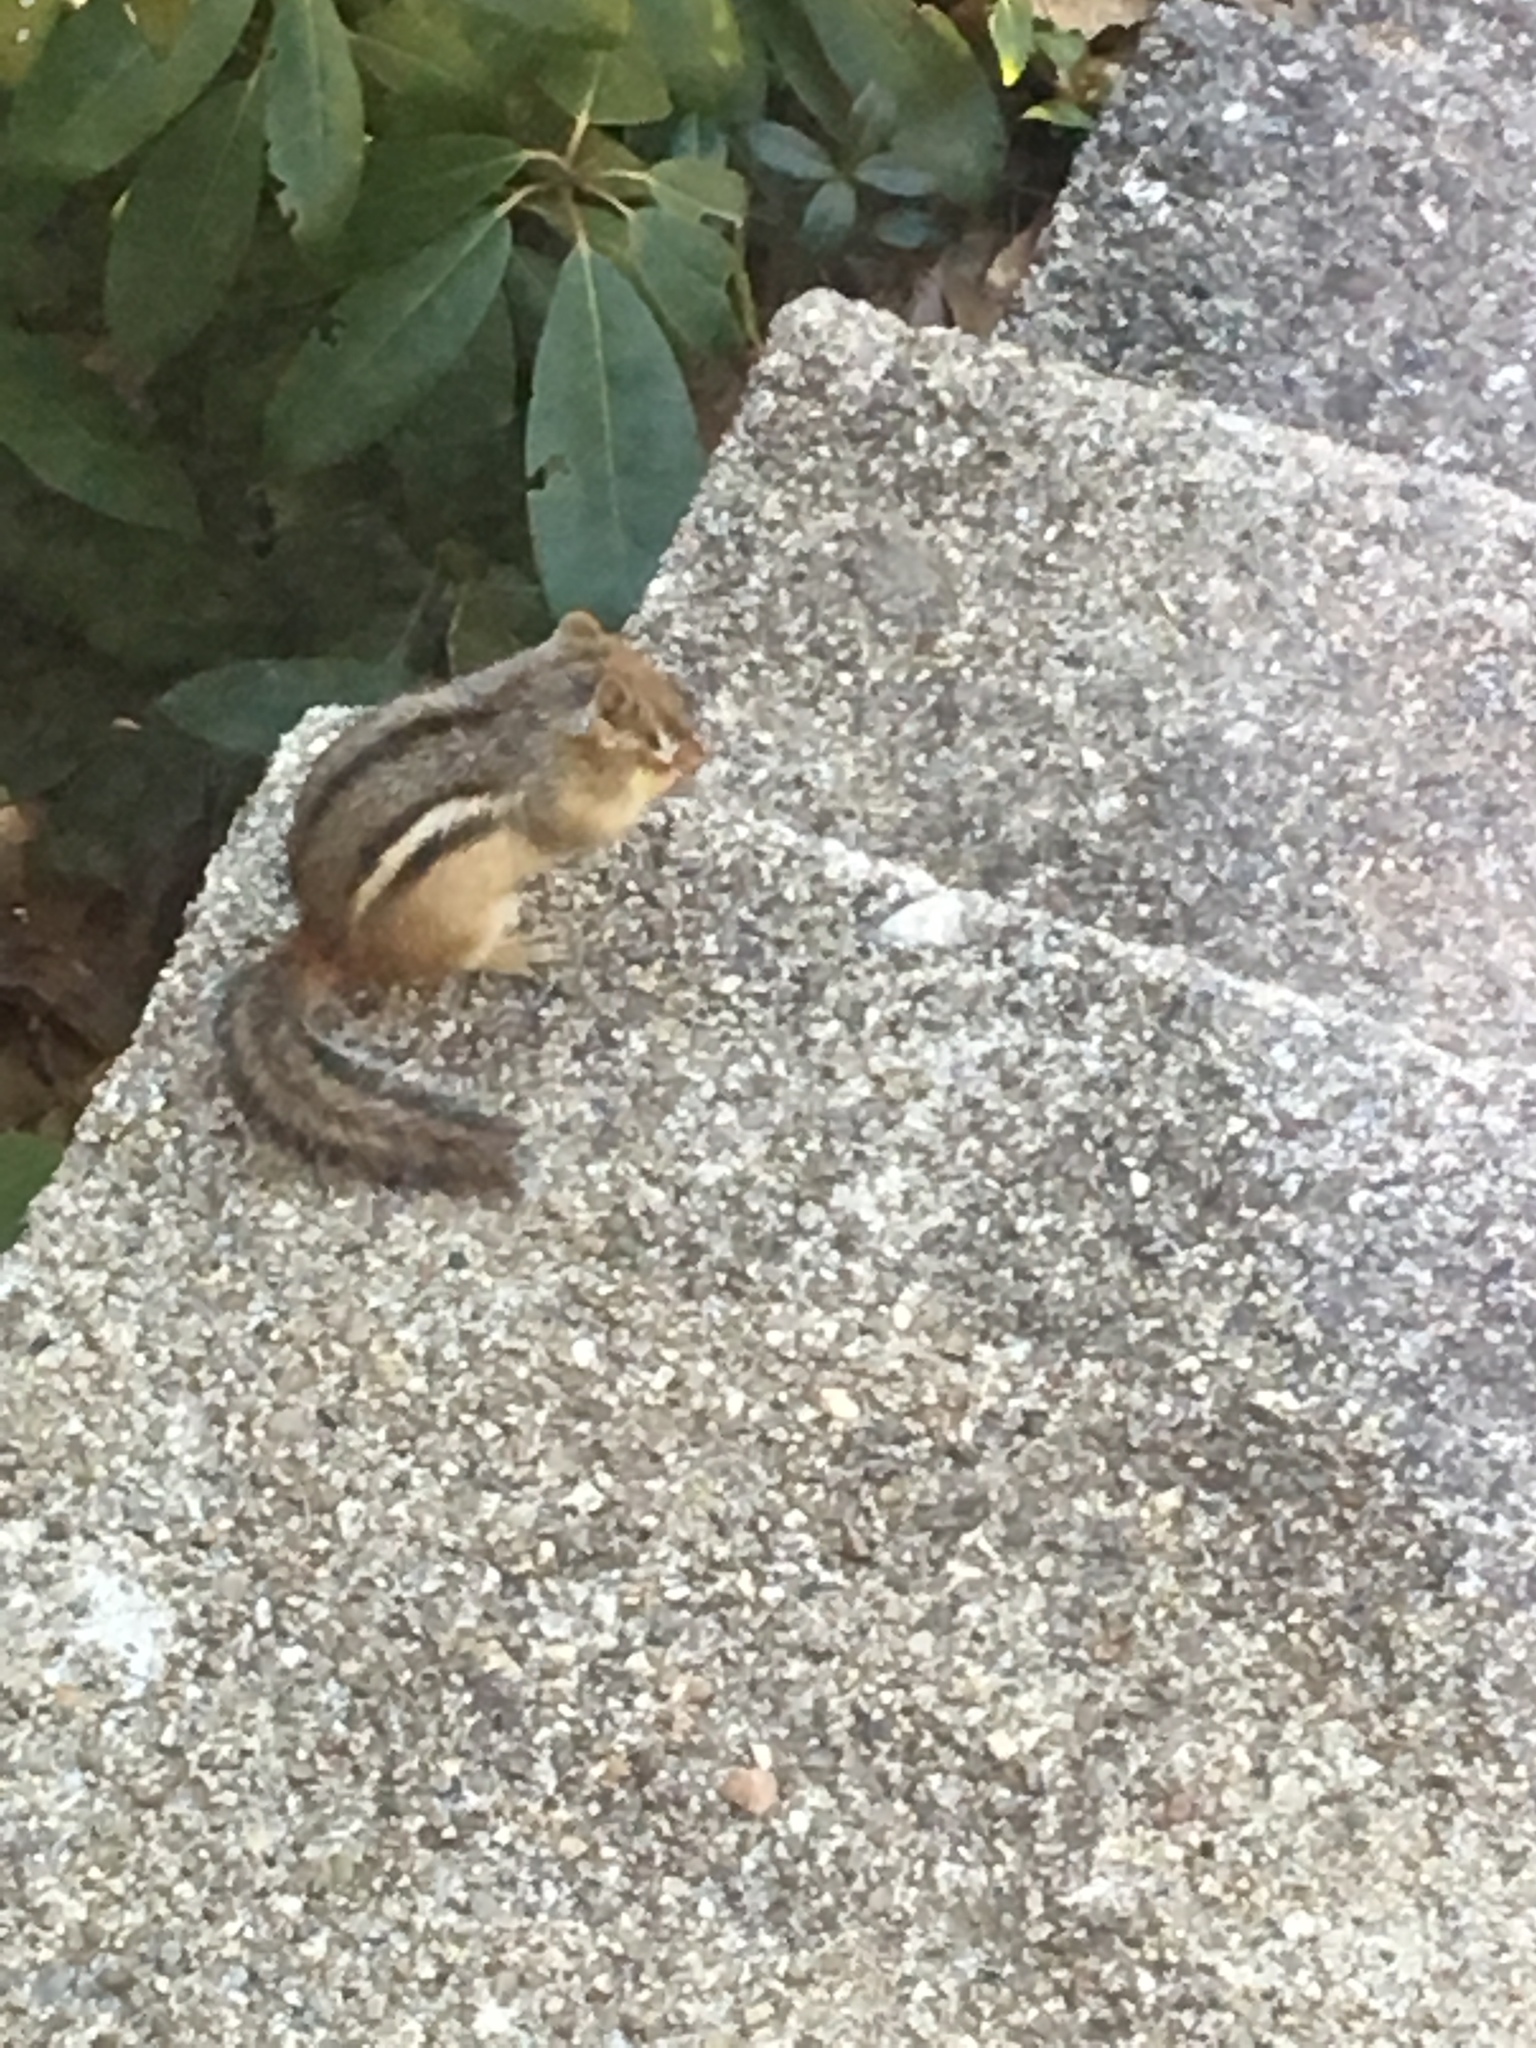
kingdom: Animalia
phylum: Chordata
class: Mammalia
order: Rodentia
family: Sciuridae
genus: Tamias
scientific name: Tamias striatus
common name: Eastern chipmunk
